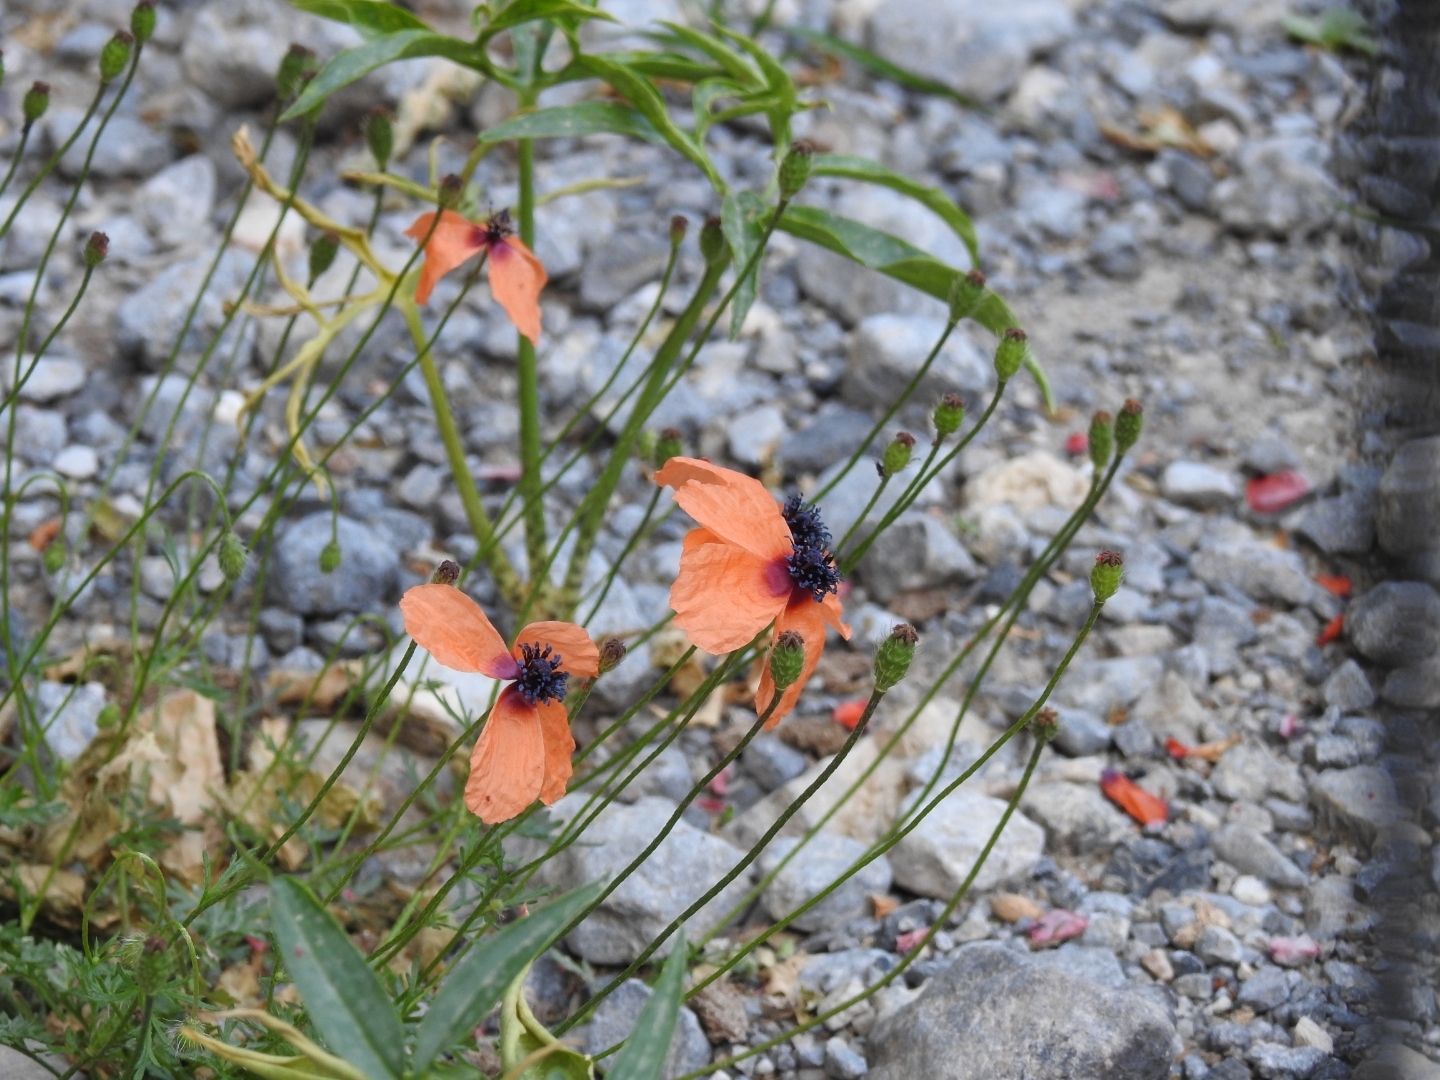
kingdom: Plantae
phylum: Tracheophyta
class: Magnoliopsida
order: Ranunculales
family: Papaveraceae
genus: Roemeria
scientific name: Roemeria apula
